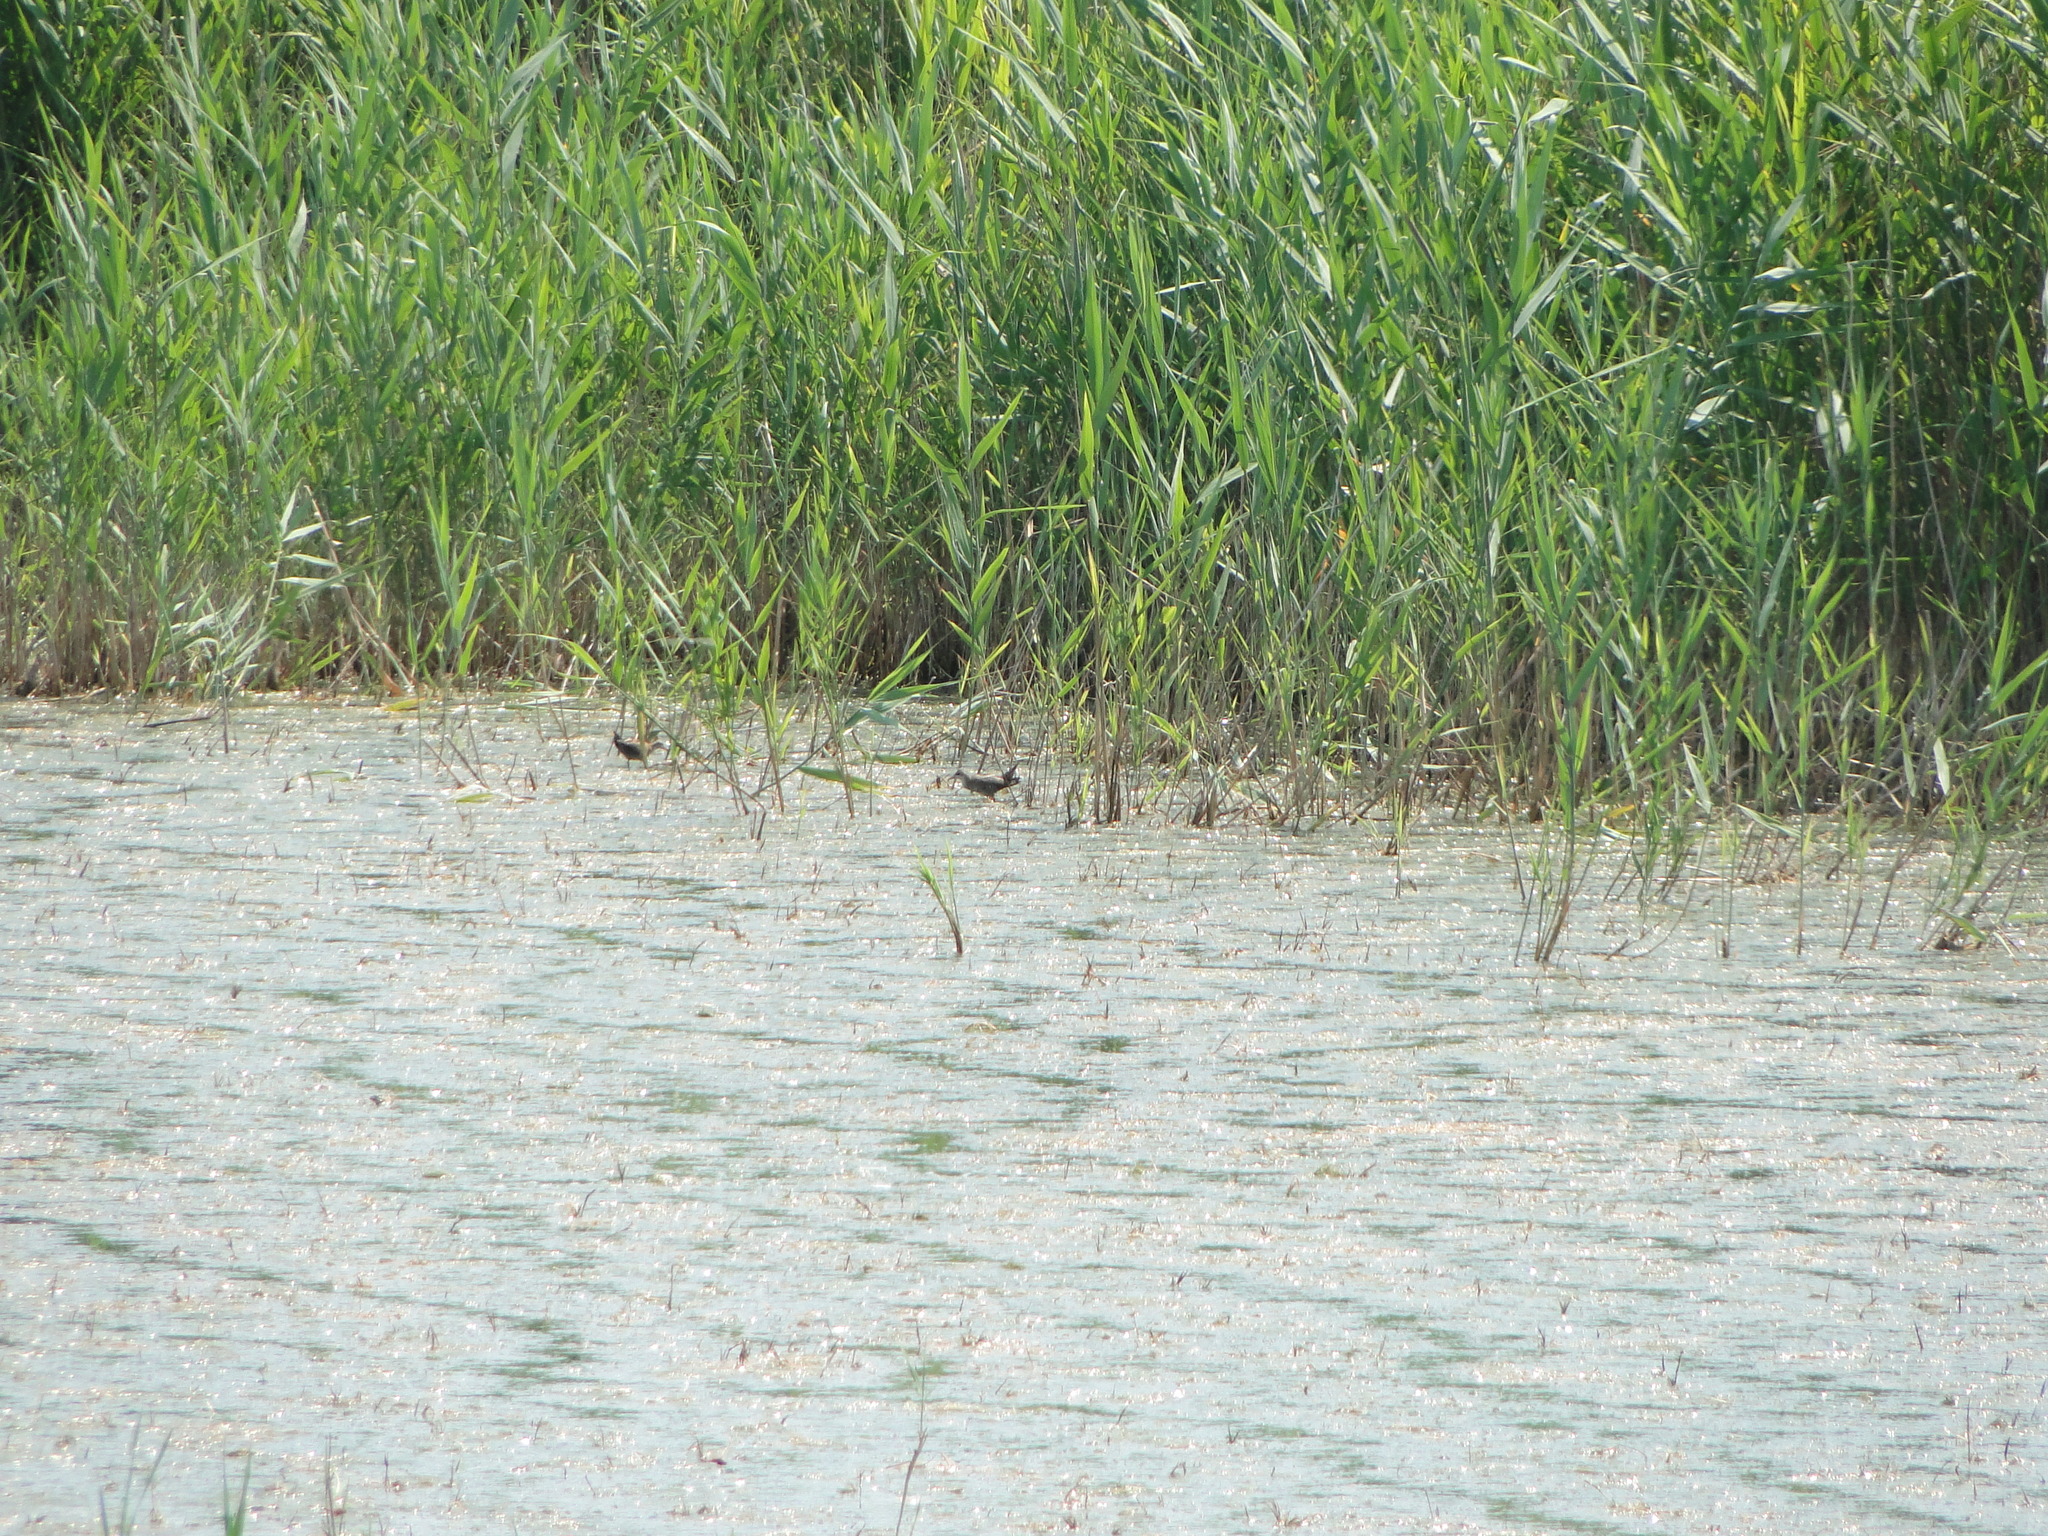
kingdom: Animalia
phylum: Chordata
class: Aves
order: Gruiformes
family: Rallidae
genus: Porzana
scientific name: Porzana parva
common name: Little crake
